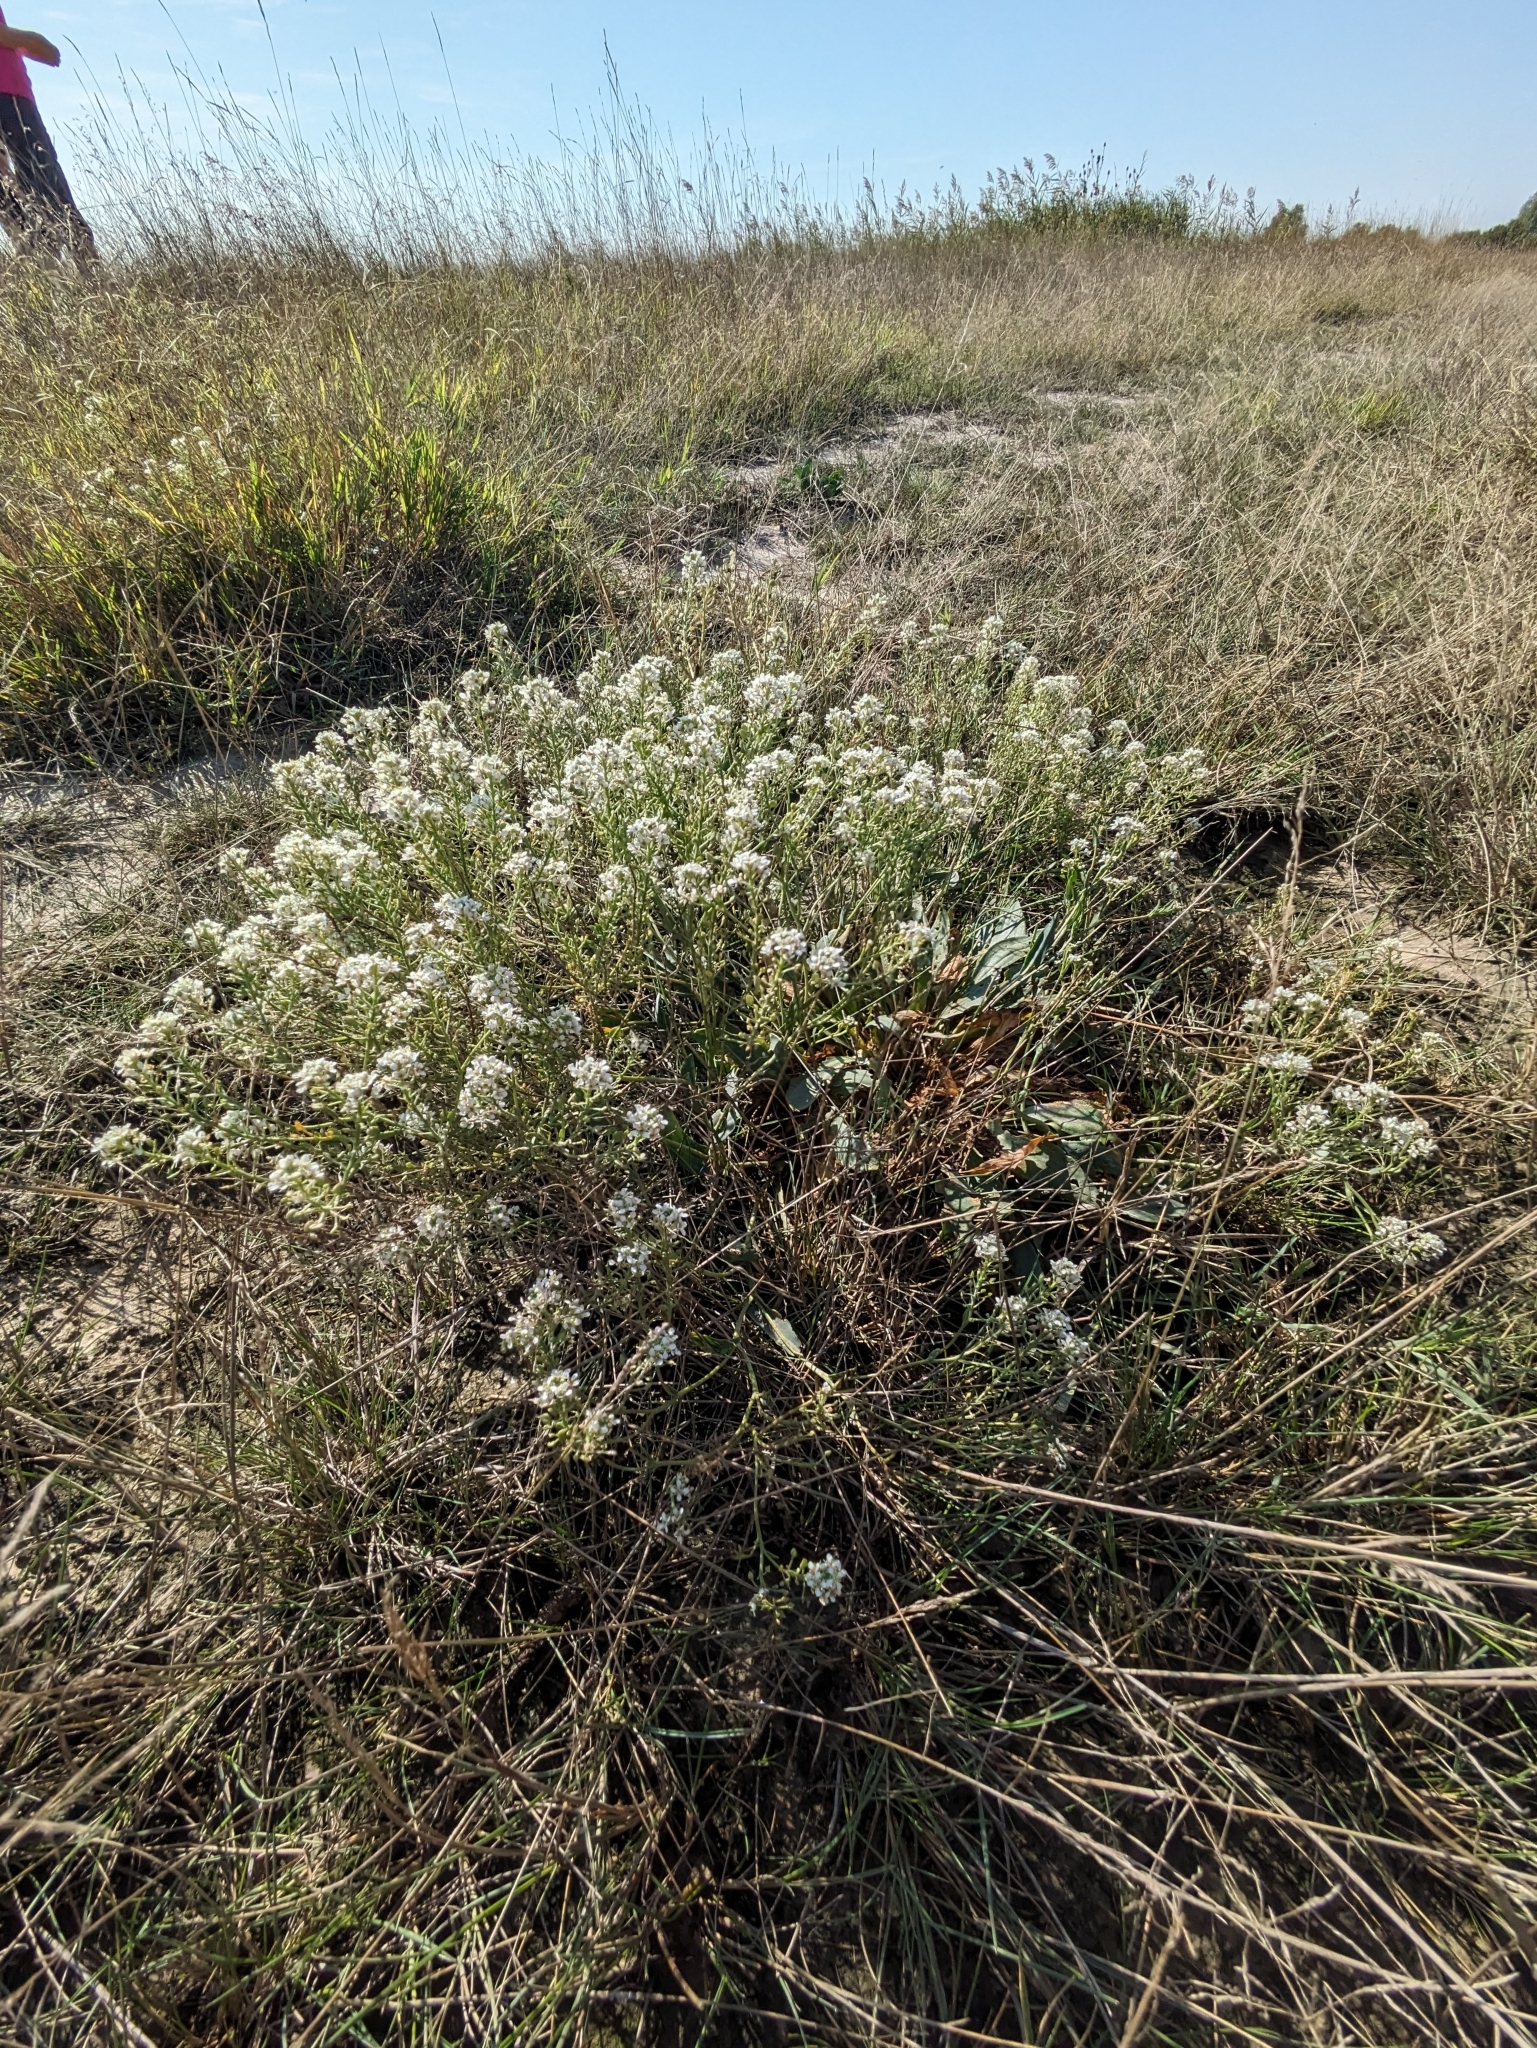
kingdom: Plantae
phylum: Tracheophyta
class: Magnoliopsida
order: Brassicales
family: Brassicaceae
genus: Lepidium
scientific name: Lepidium cartilagineum
